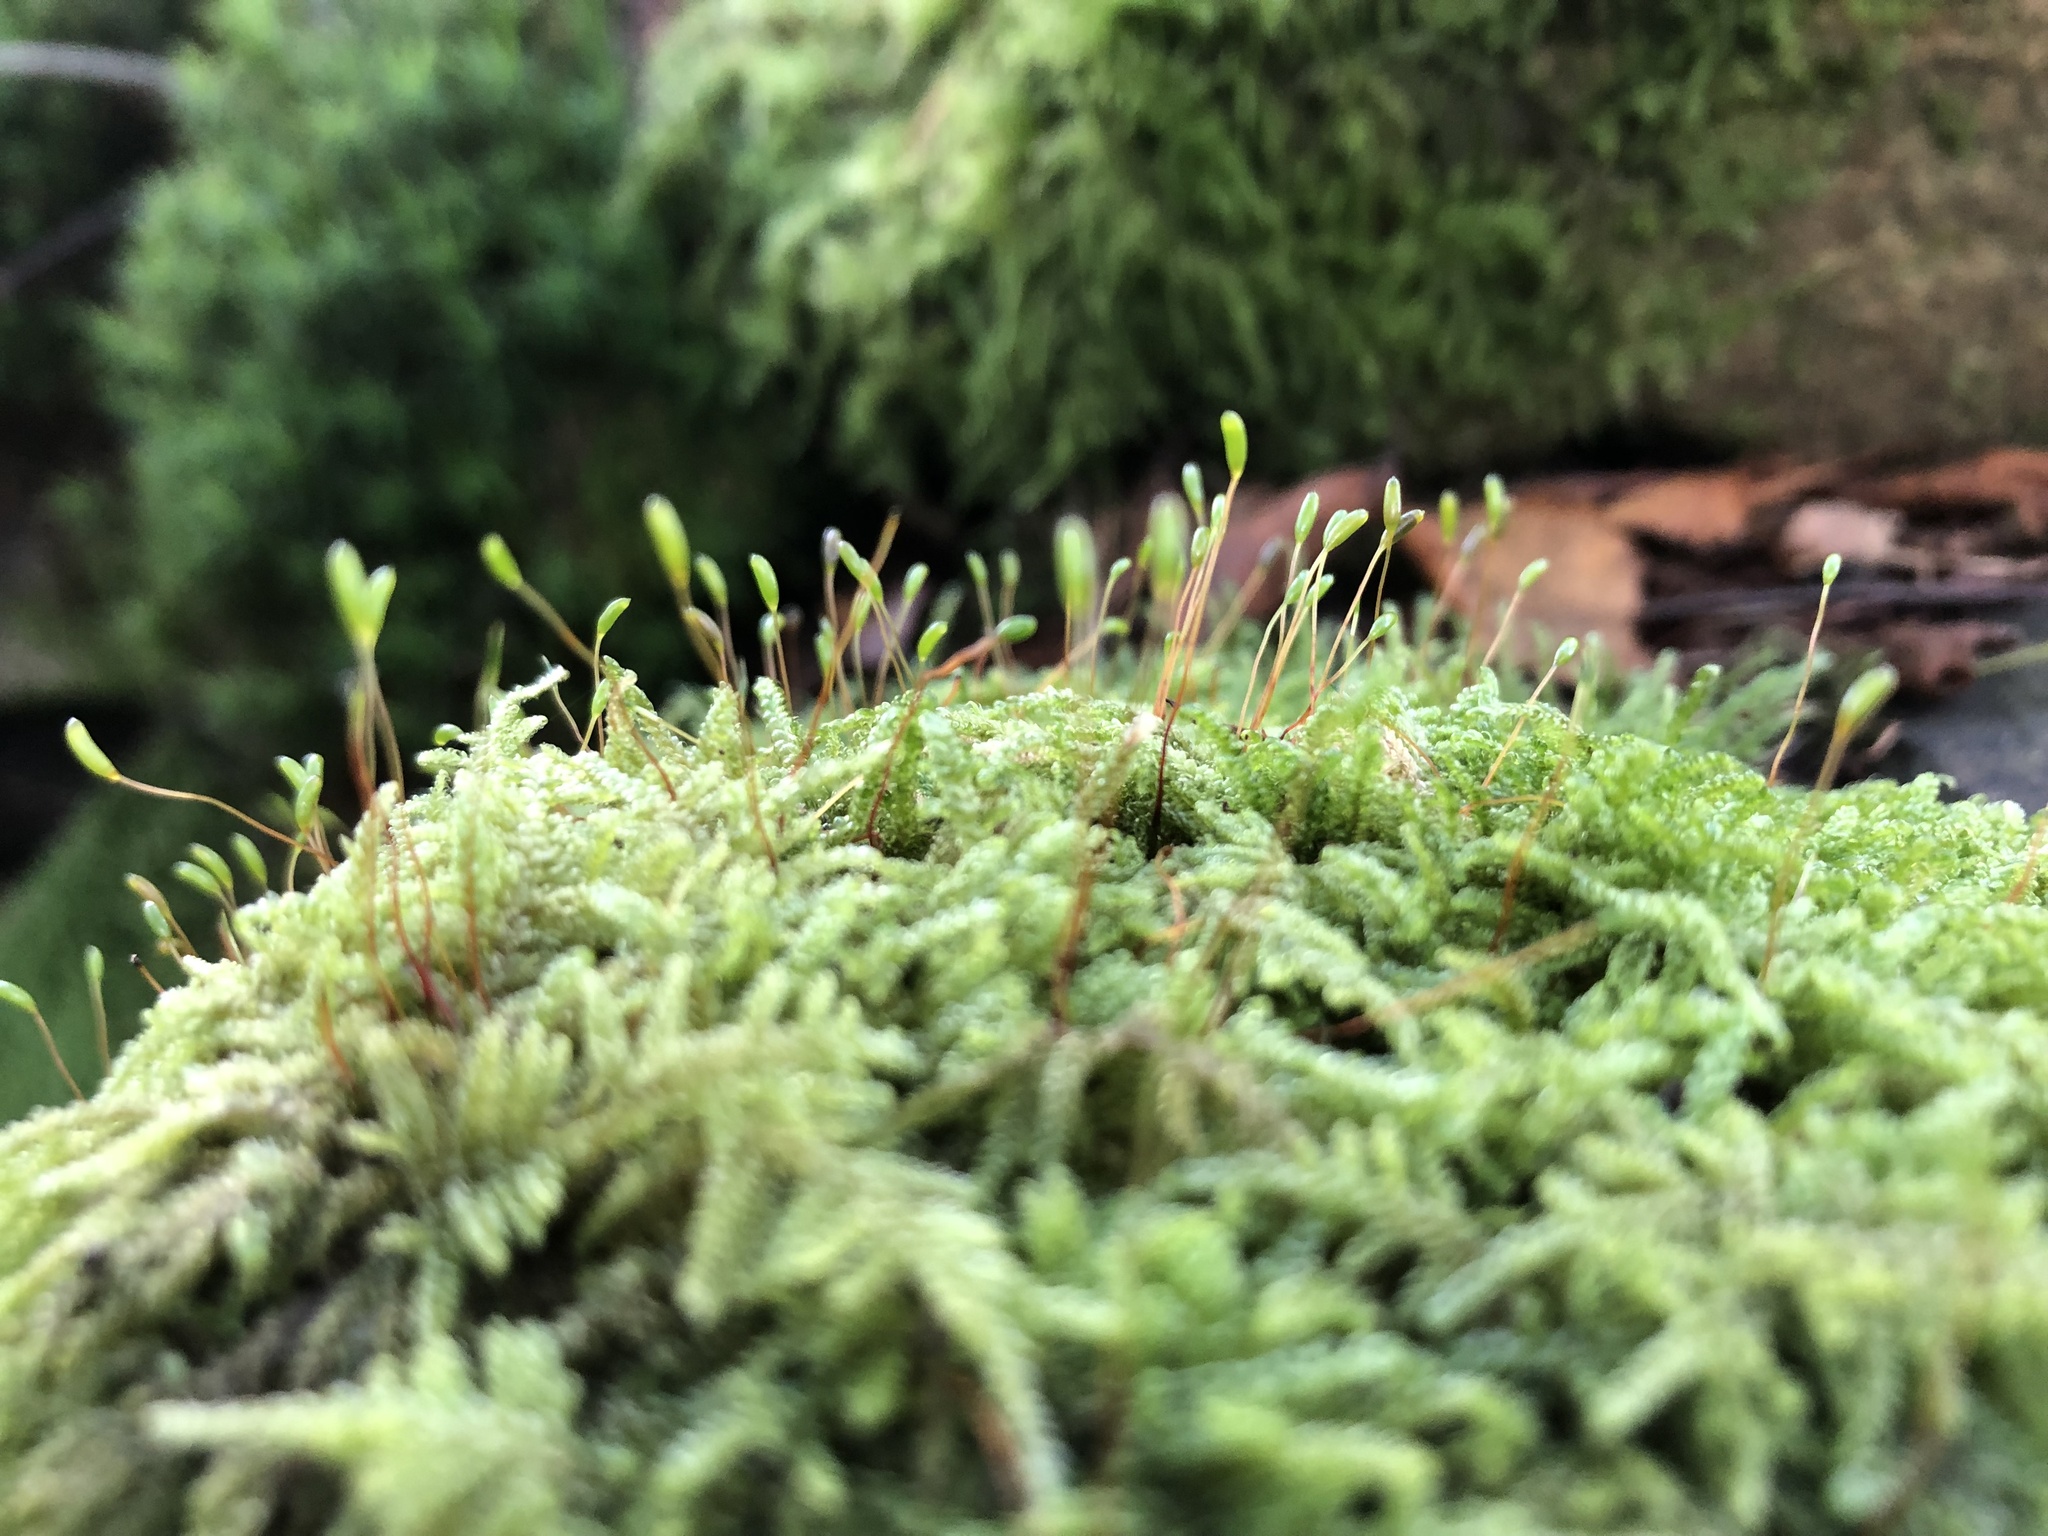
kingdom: Plantae
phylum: Bryophyta
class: Bryopsida
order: Hypnales
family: Hypnaceae
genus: Hypnum
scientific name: Hypnum cupressiforme
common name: Cypress-leaved plait-moss
